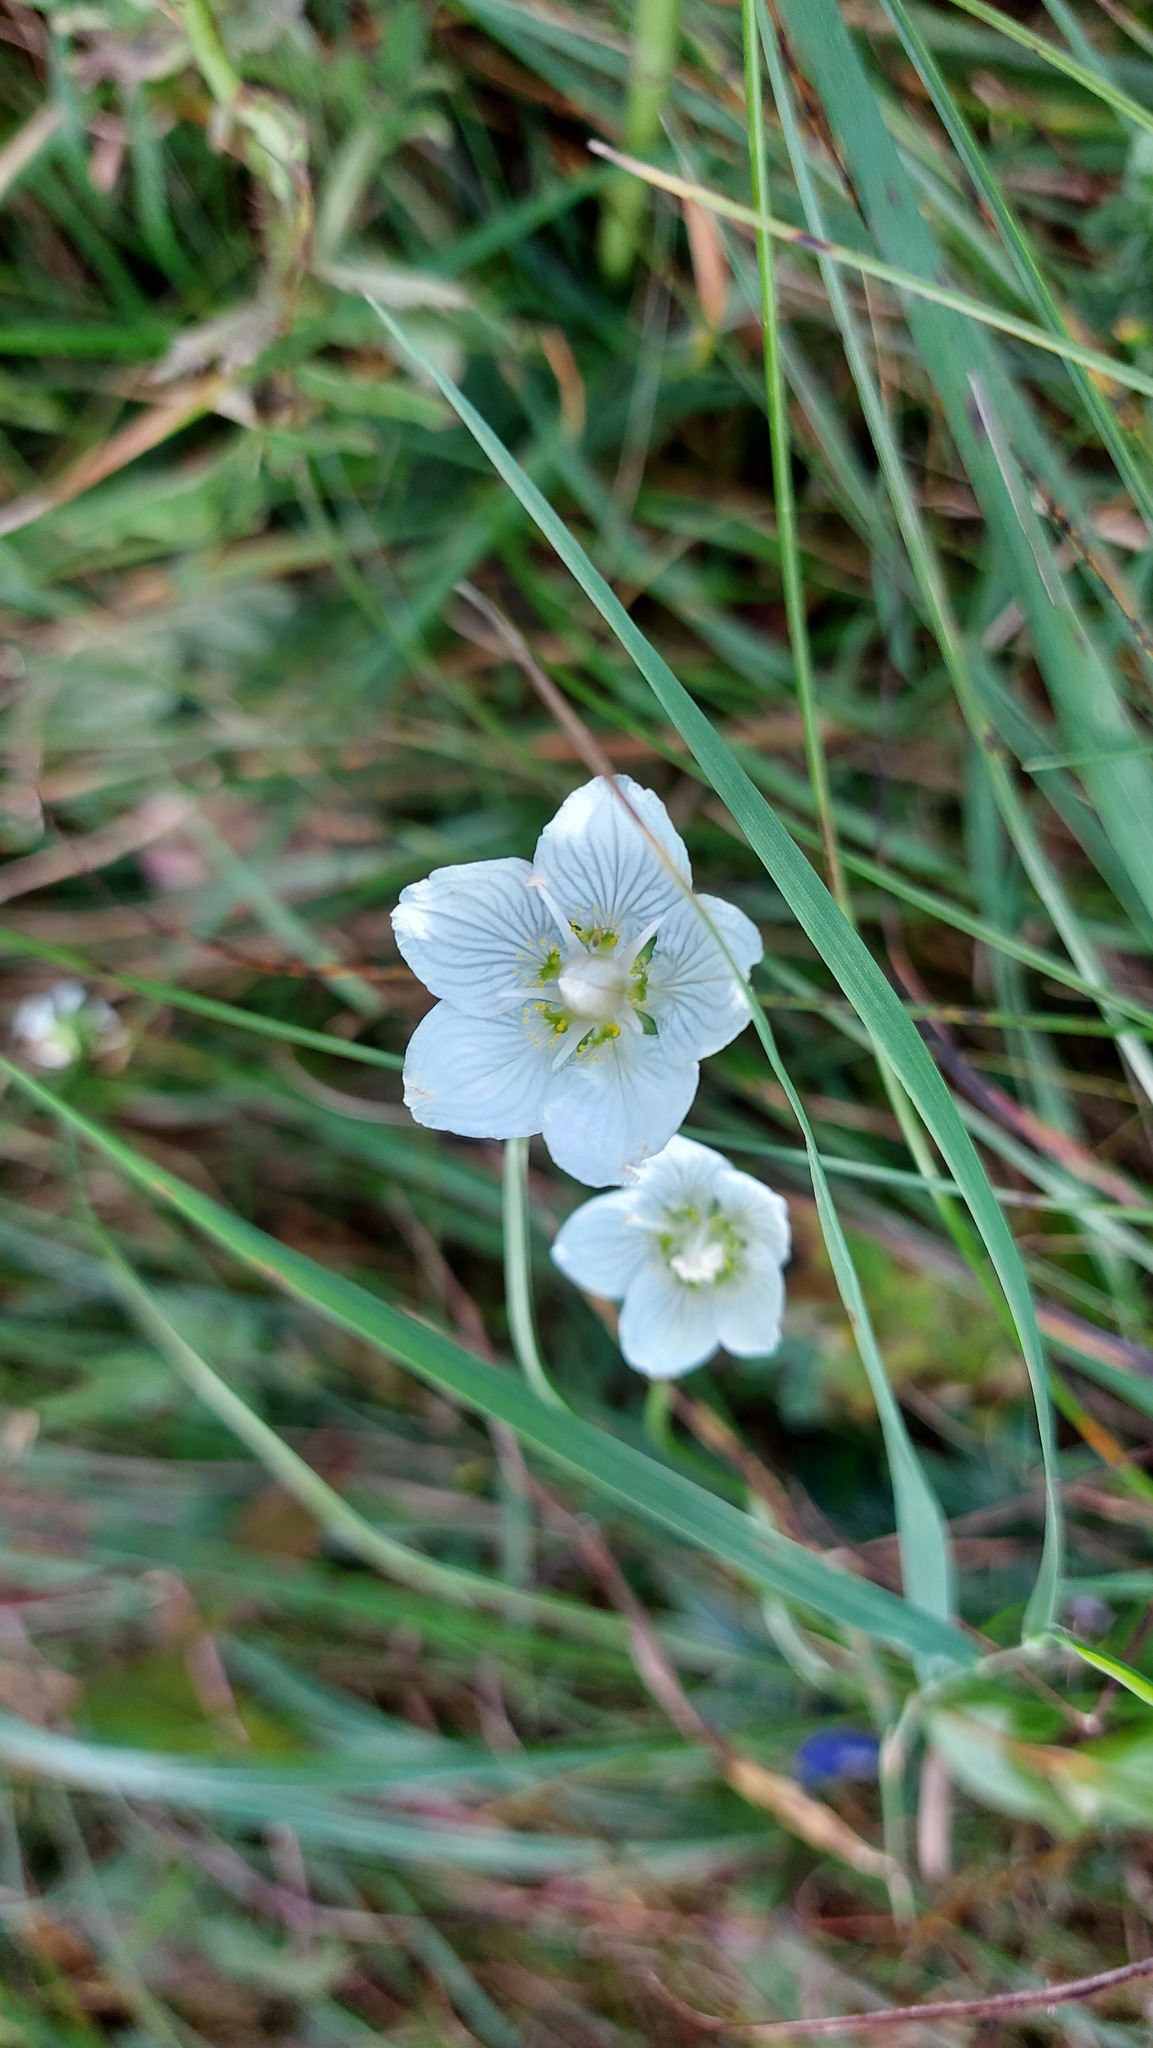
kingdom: Plantae
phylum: Tracheophyta
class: Magnoliopsida
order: Celastrales
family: Parnassiaceae
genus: Parnassia
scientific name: Parnassia palustris
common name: Grass-of-parnassus
